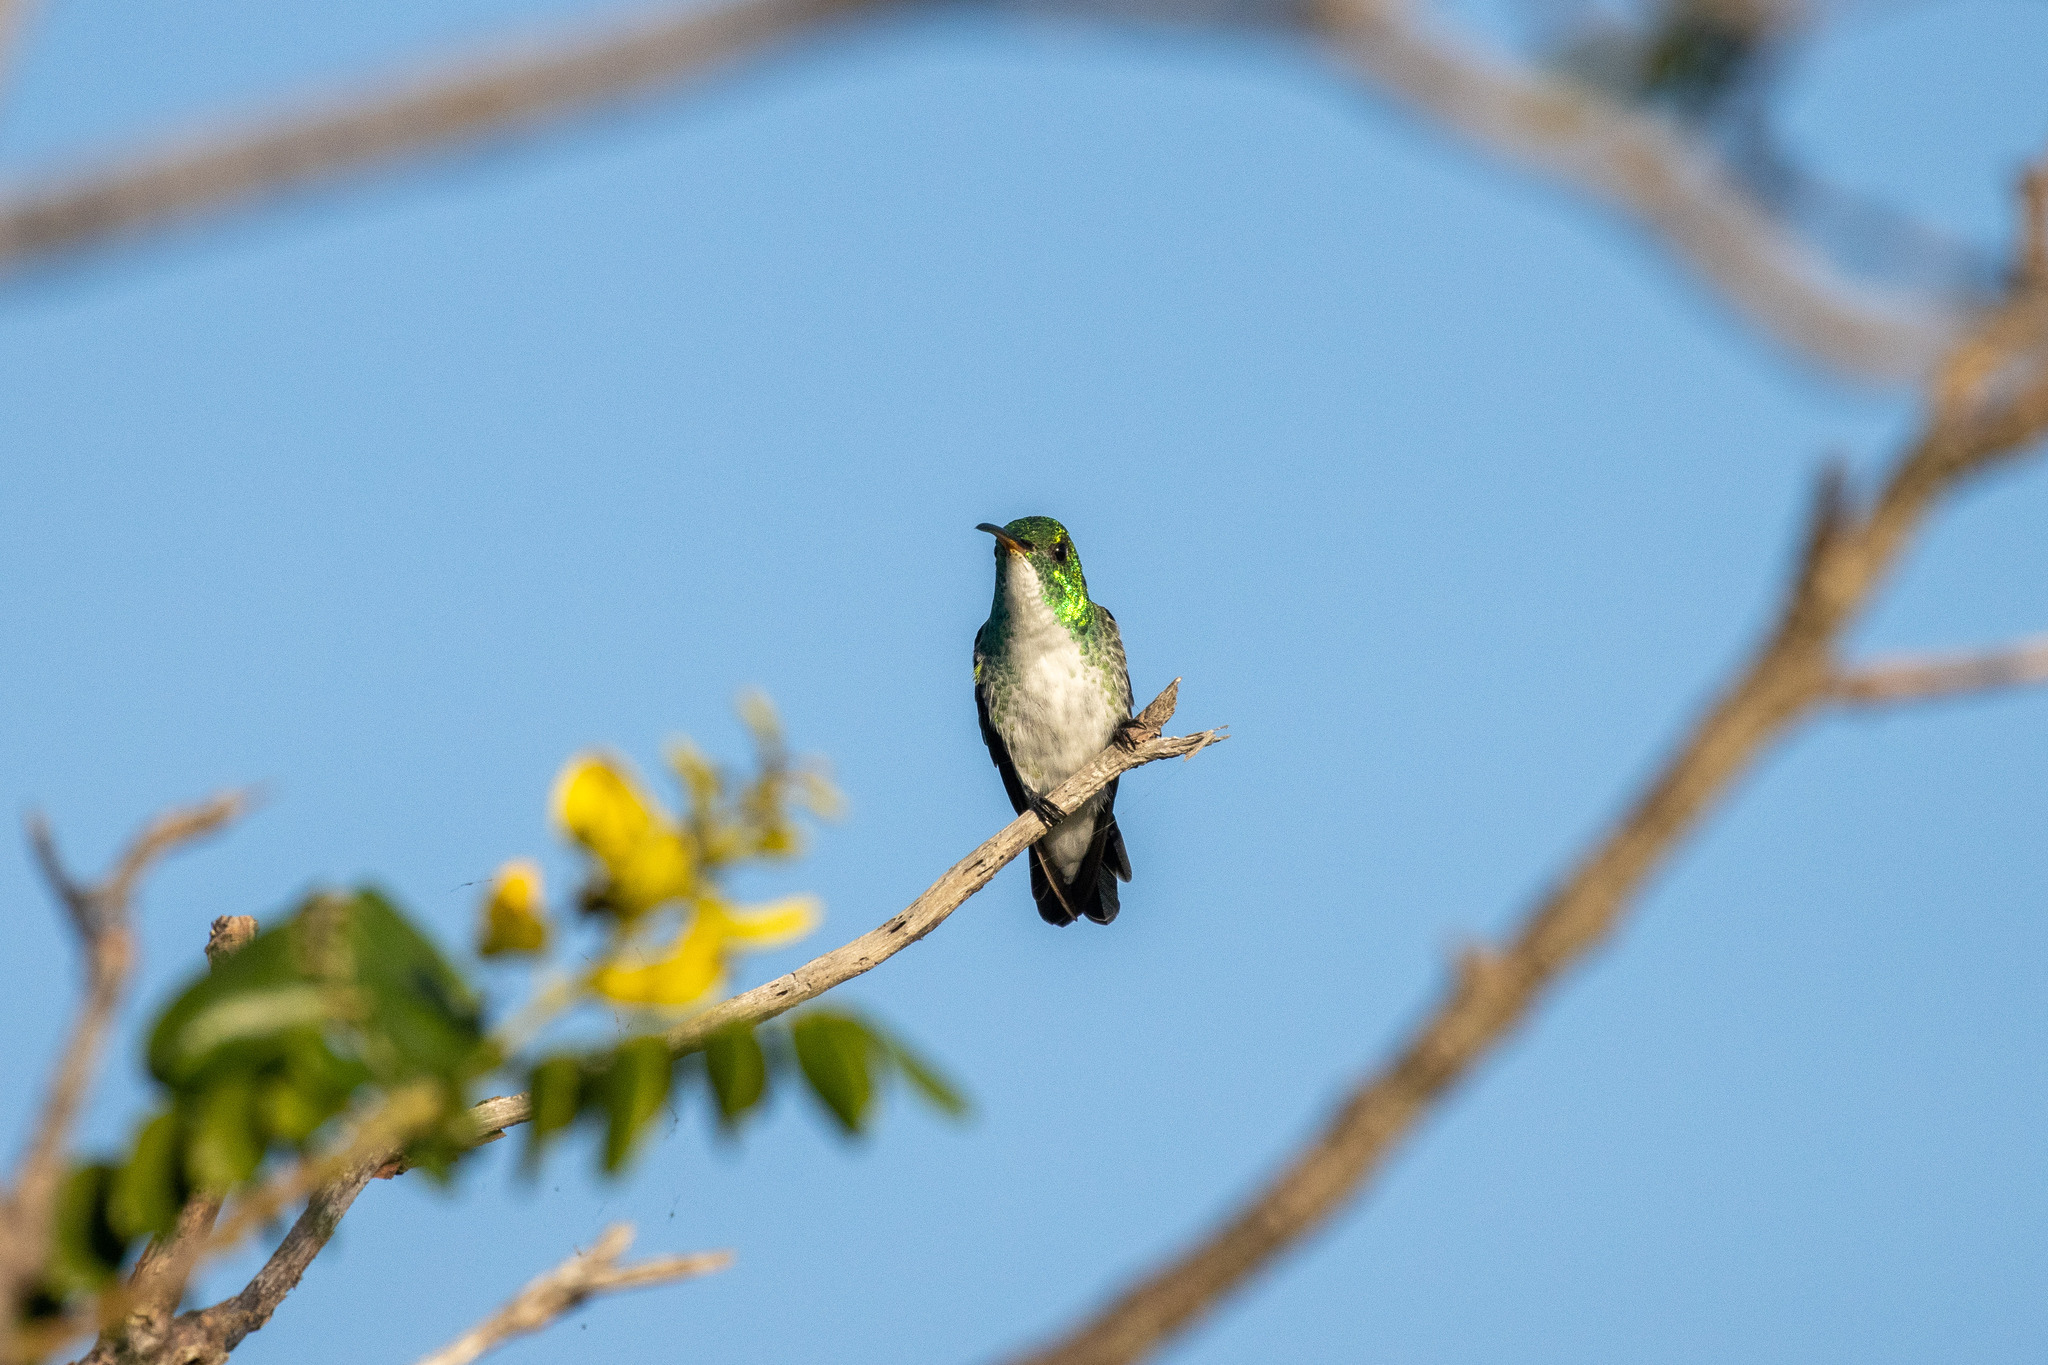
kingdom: Animalia
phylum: Chordata
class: Aves
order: Apodiformes
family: Trochilidae
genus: Chrysuronia
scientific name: Chrysuronia leucogaster
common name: Plain-bellied emerald
